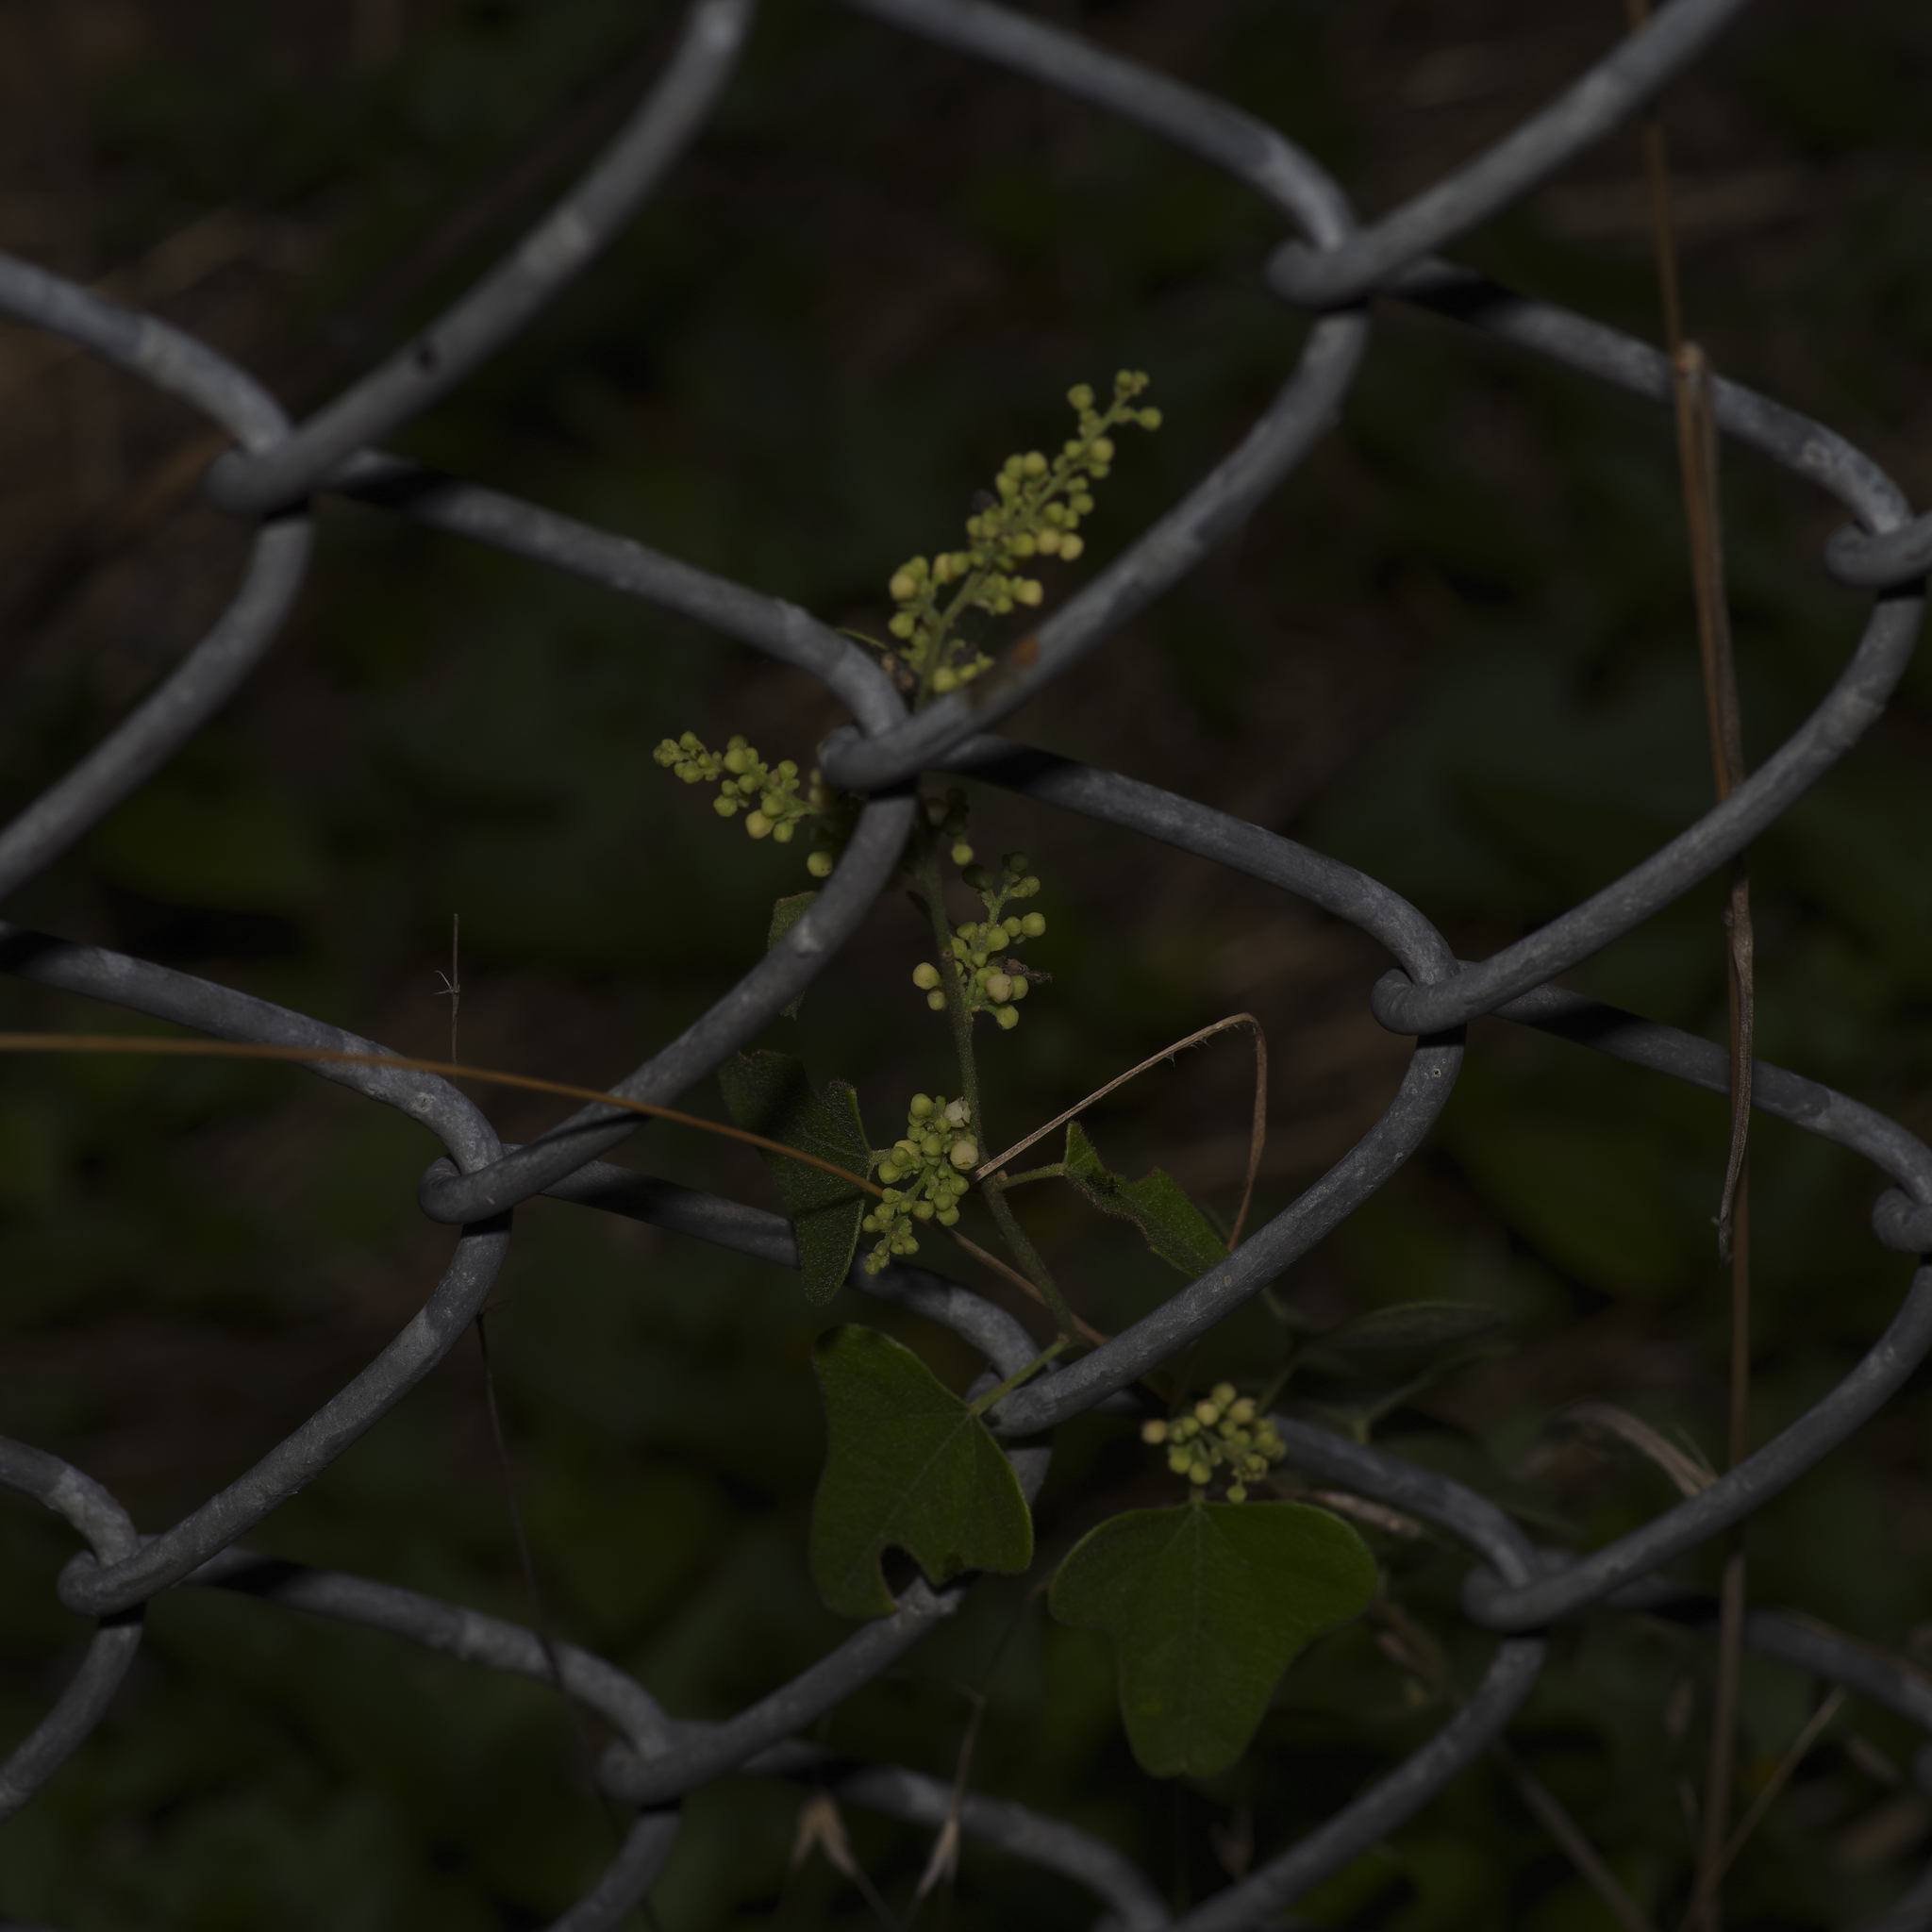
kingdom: Plantae
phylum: Tracheophyta
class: Magnoliopsida
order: Ranunculales
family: Menispermaceae
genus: Cocculus
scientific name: Cocculus carolinus
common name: Carolina moonseed
